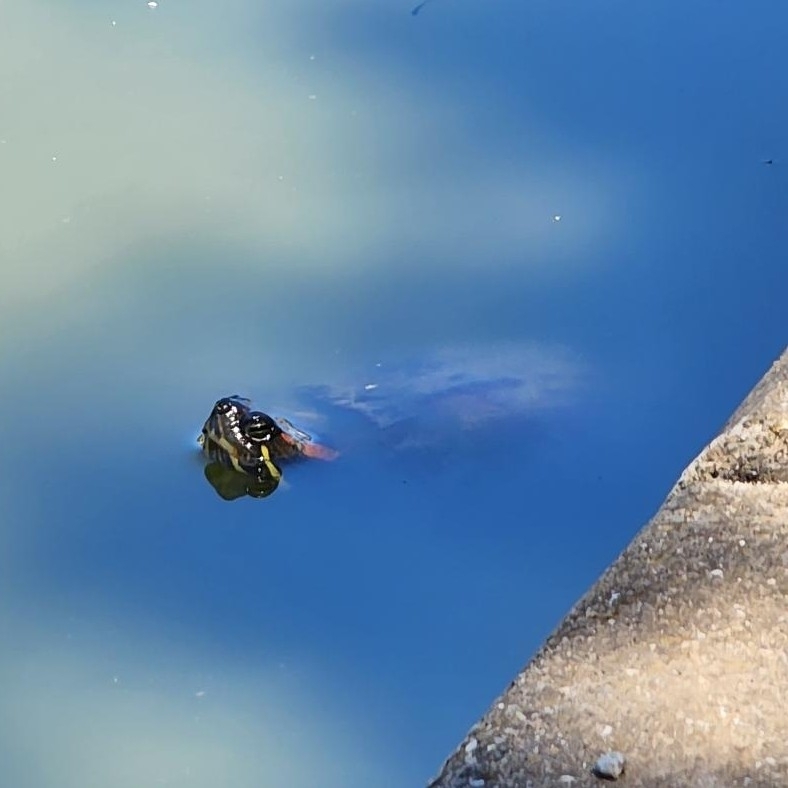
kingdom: Animalia
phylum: Chordata
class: Testudines
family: Emydidae
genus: Trachemys
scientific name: Trachemys scripta
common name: Slider
